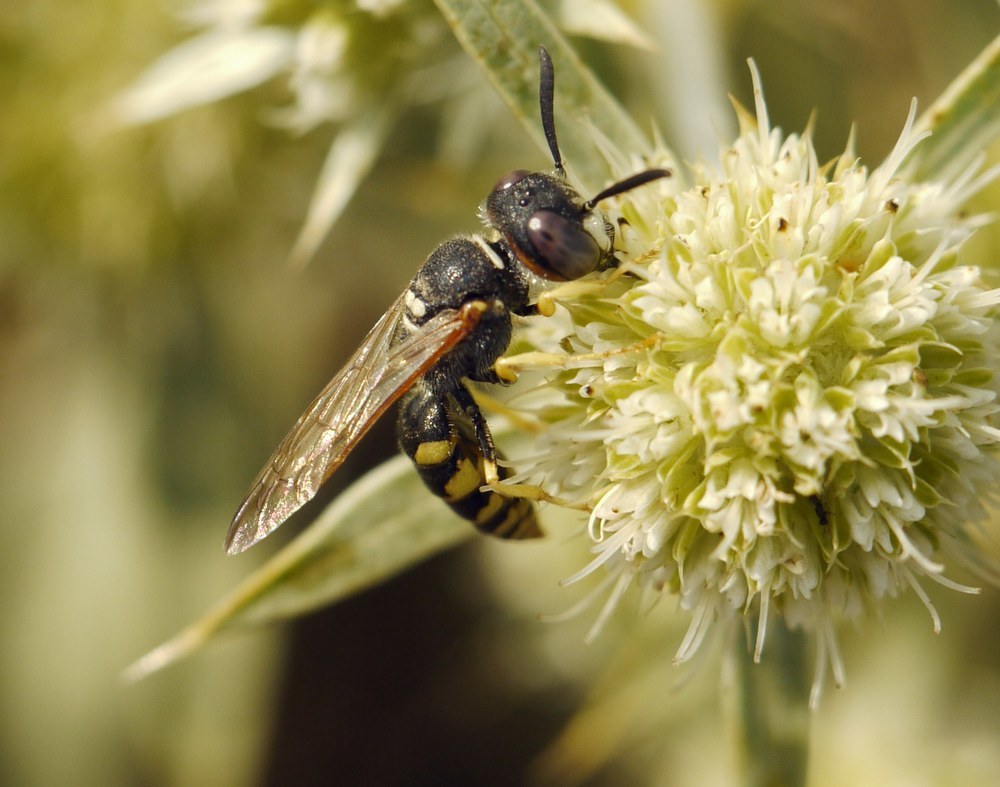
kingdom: Animalia
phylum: Arthropoda
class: Insecta
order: Hymenoptera
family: Crabronidae
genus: Philanthus
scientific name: Philanthus triangulum
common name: Bee wolf
